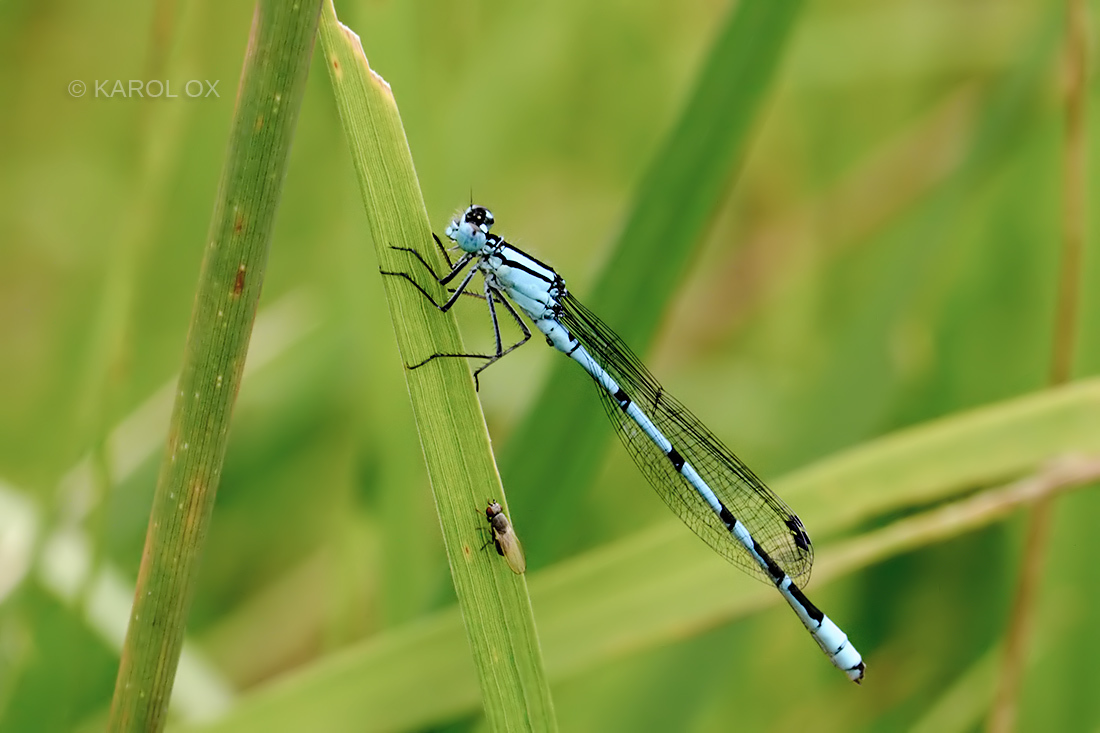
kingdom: Animalia
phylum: Arthropoda
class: Insecta
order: Odonata
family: Coenagrionidae
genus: Enallagma
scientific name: Enallagma cyathigerum
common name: Common blue damselfly
